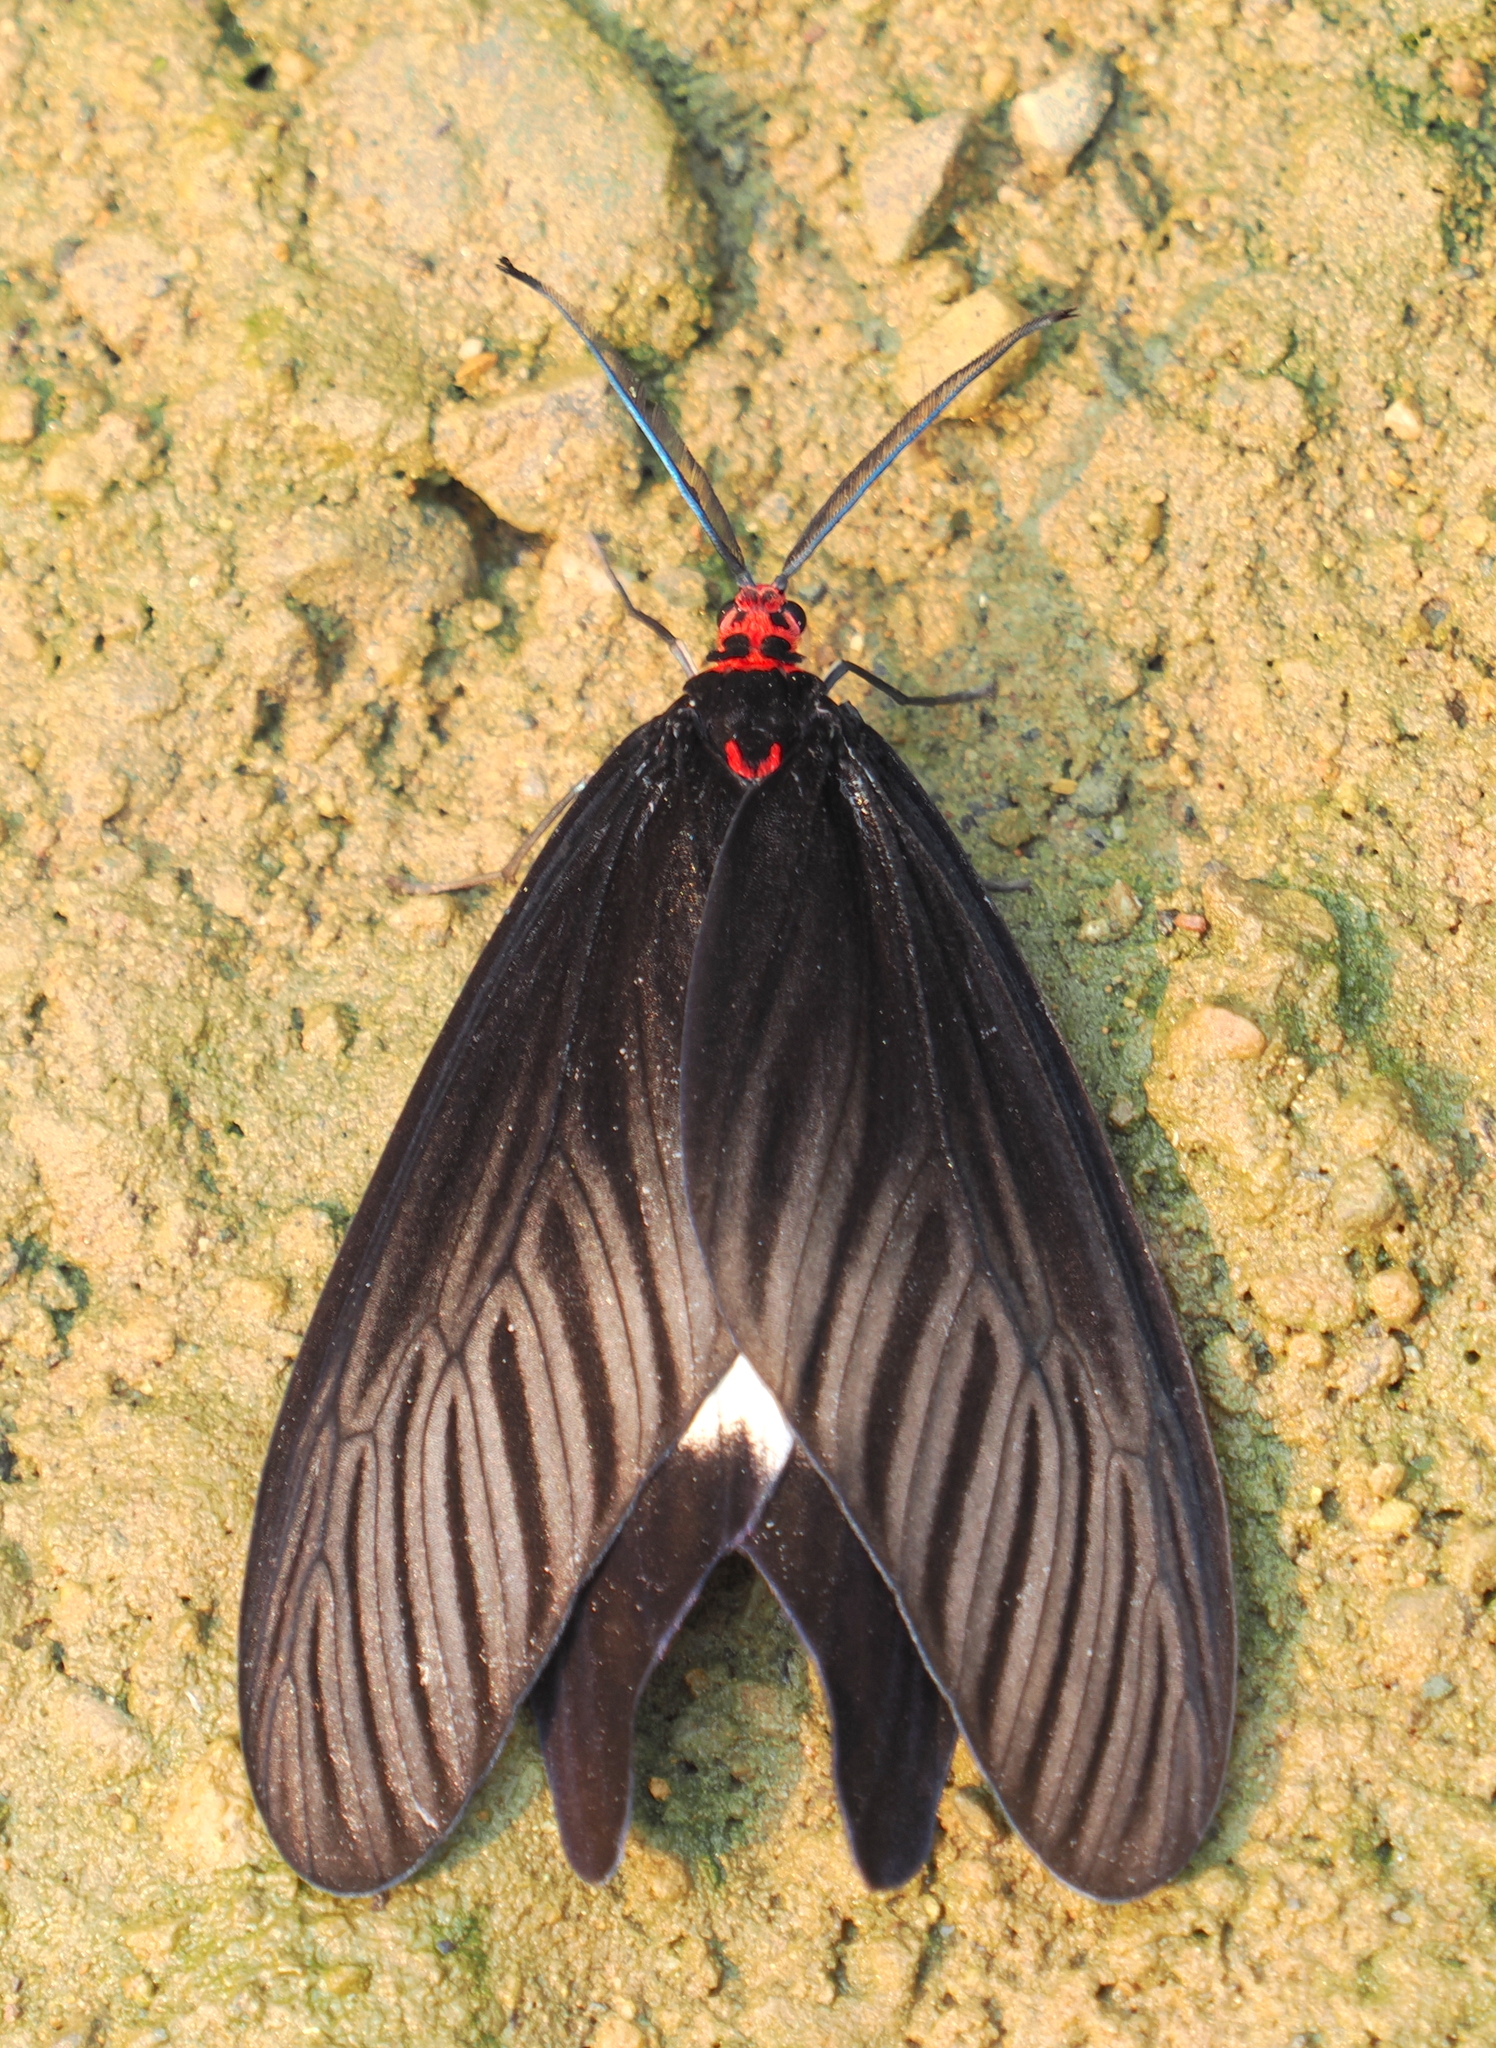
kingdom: Animalia
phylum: Arthropoda
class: Insecta
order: Lepidoptera
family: Zygaenidae
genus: Histia
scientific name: Histia flabellicornis
